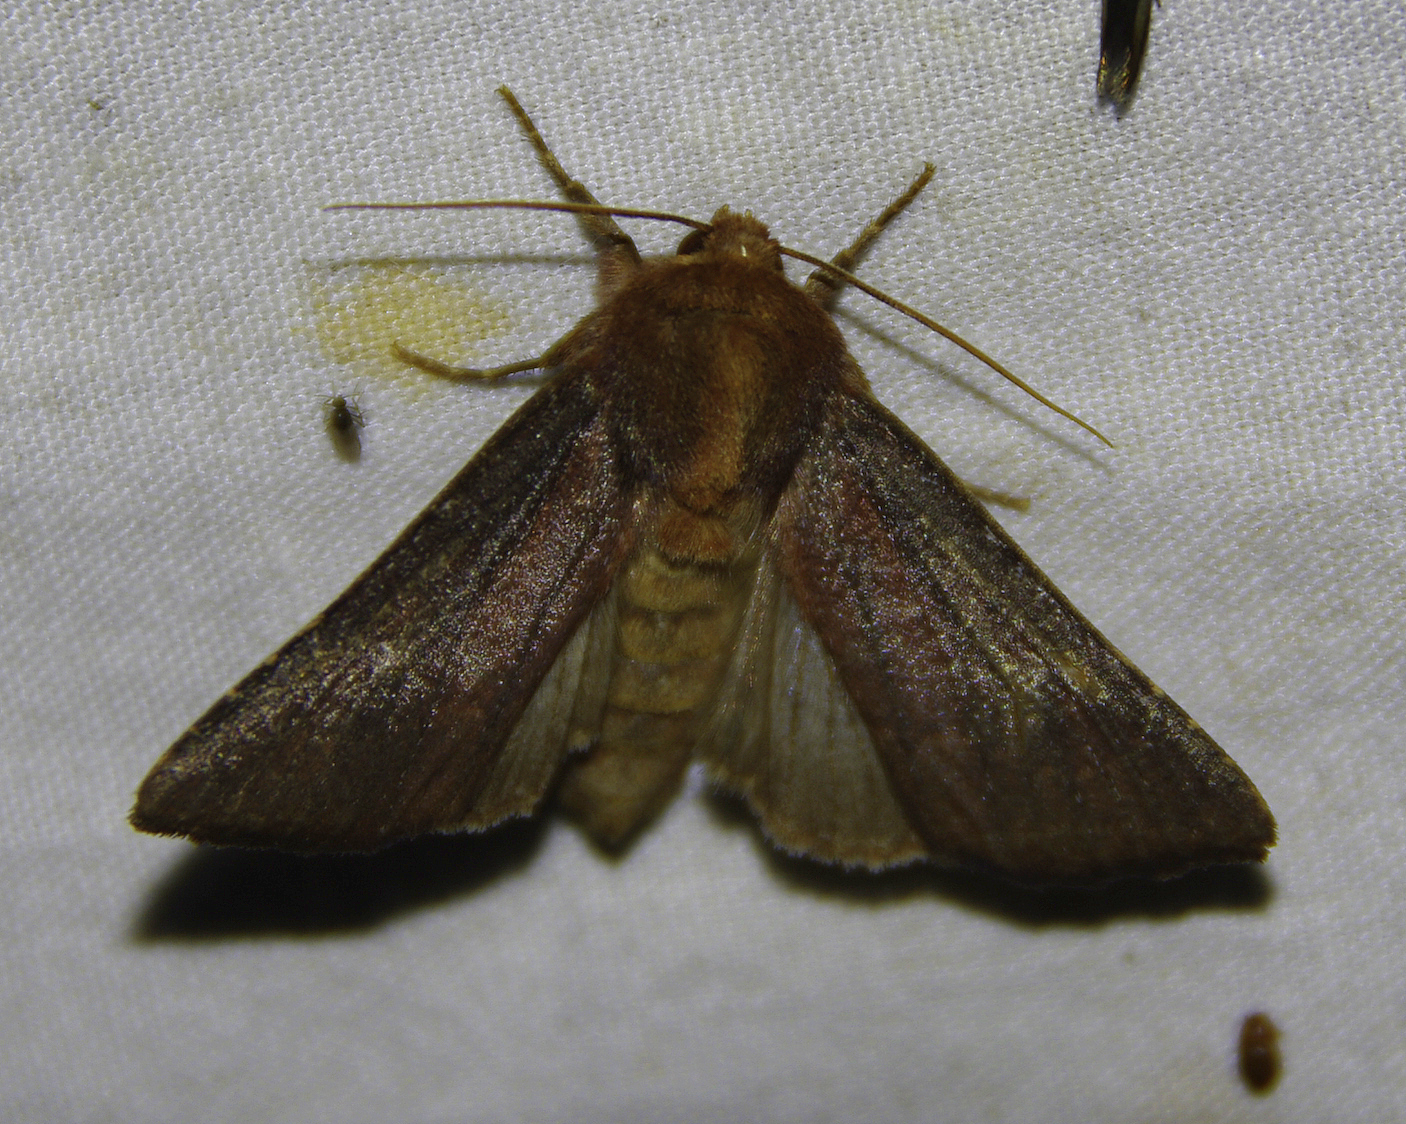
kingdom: Animalia
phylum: Arthropoda
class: Insecta
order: Lepidoptera
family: Noctuidae
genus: Sideridis
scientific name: Sideridis maryx
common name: Maroonwing moth
